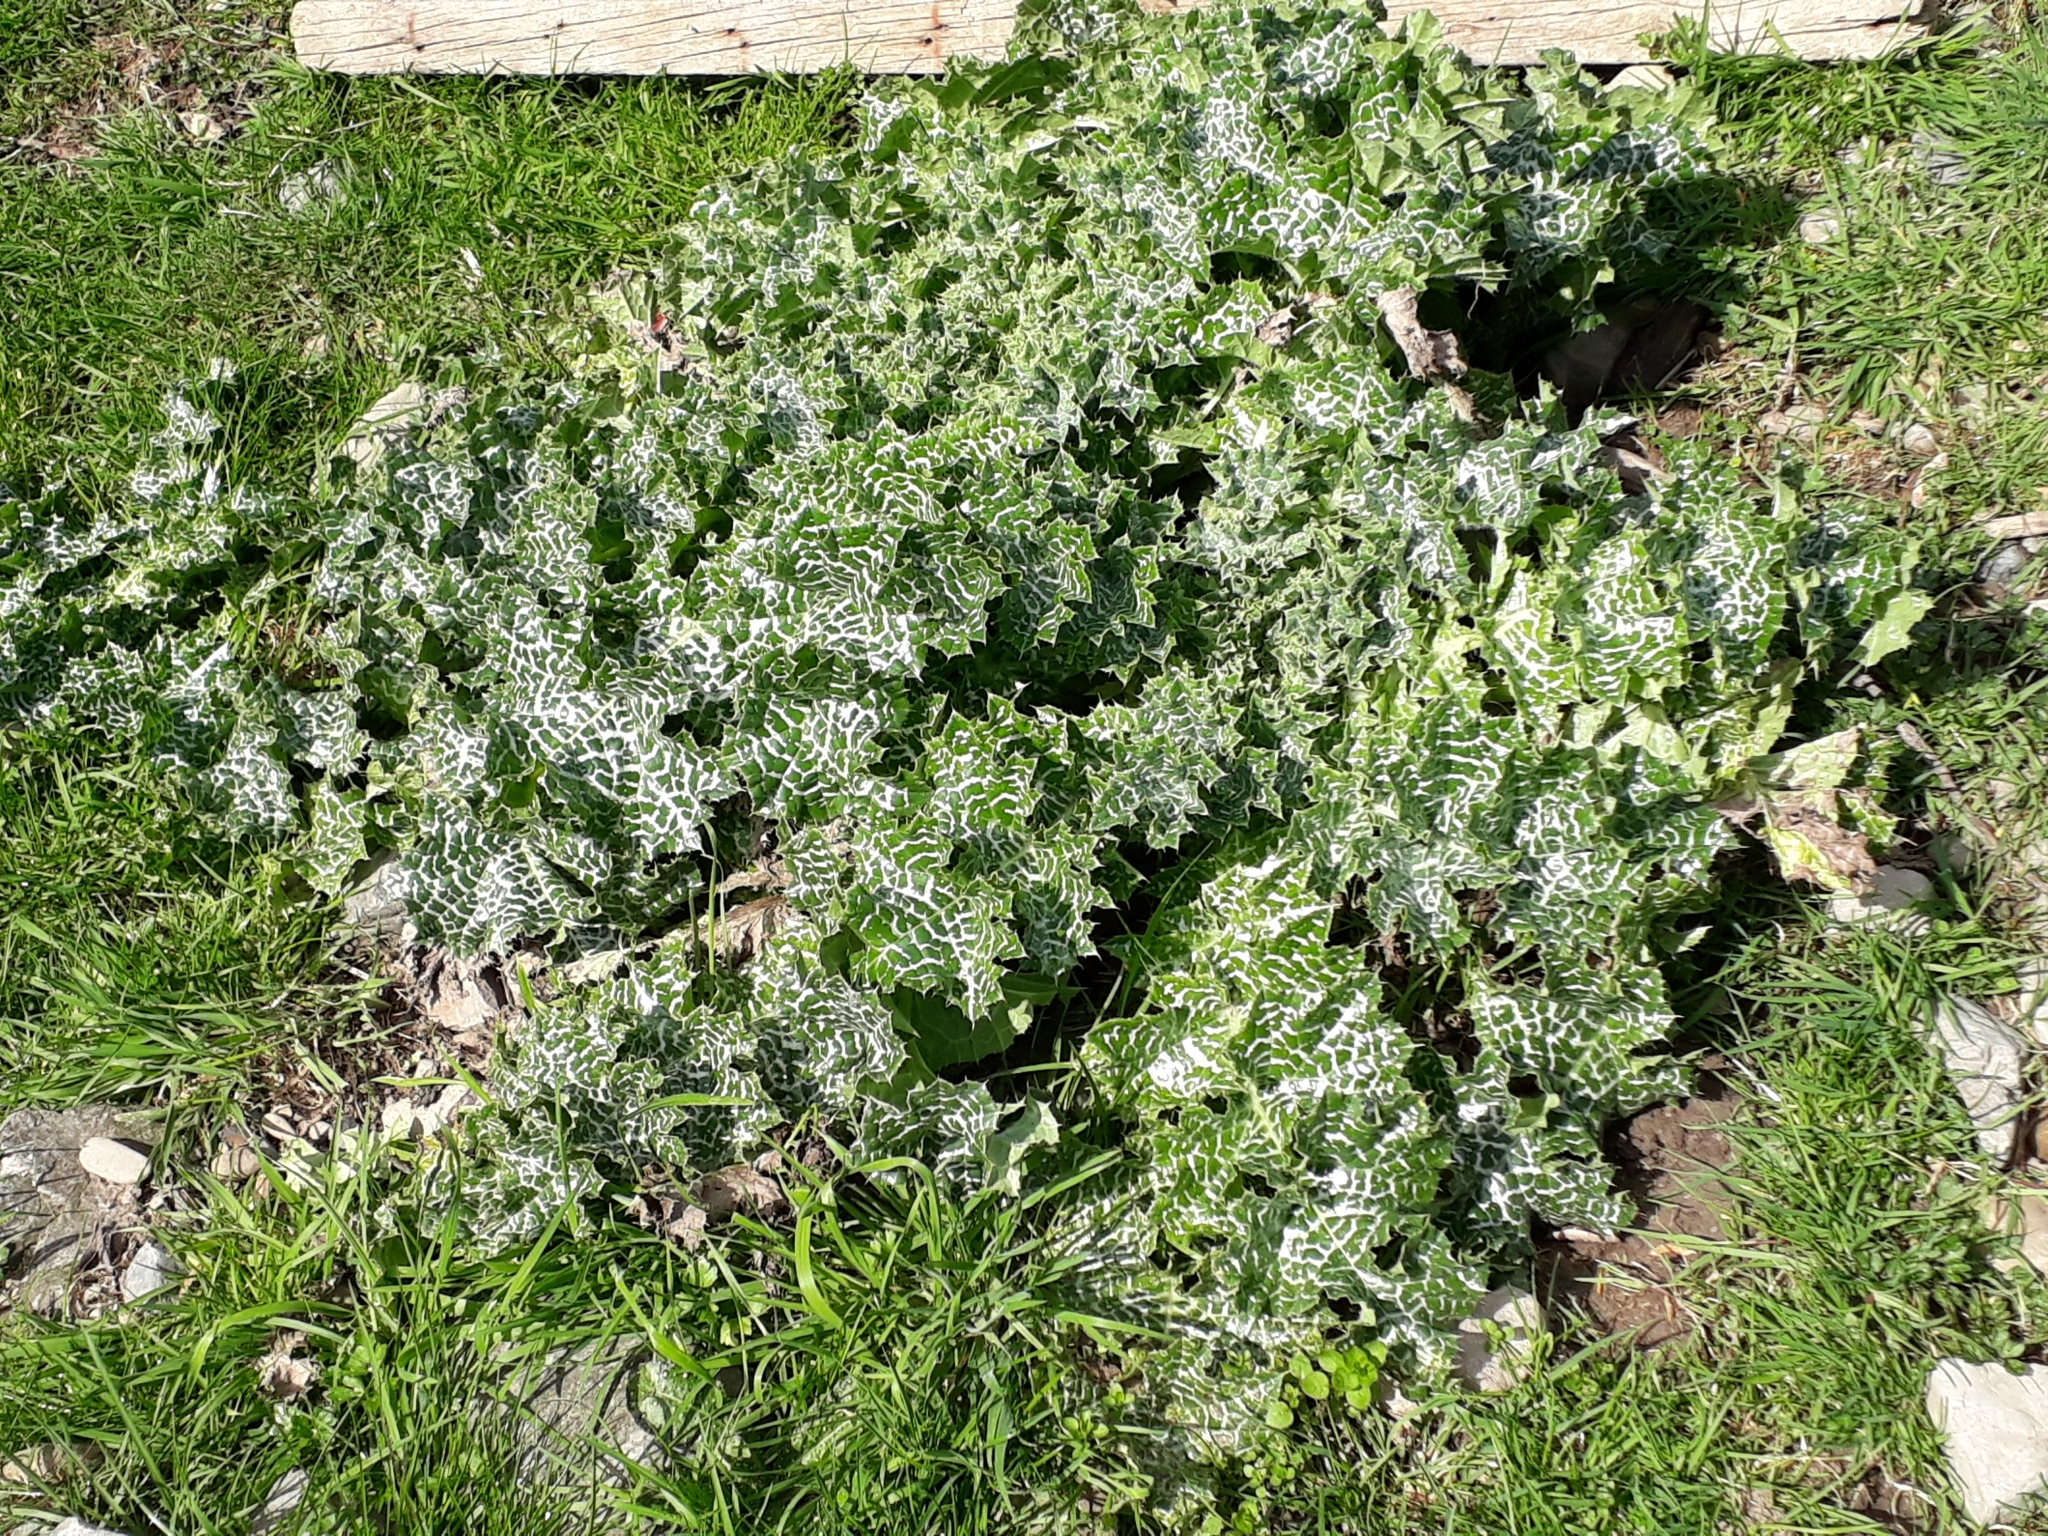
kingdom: Plantae
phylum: Tracheophyta
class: Magnoliopsida
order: Asterales
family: Asteraceae
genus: Silybum
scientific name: Silybum marianum
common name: Milk thistle
